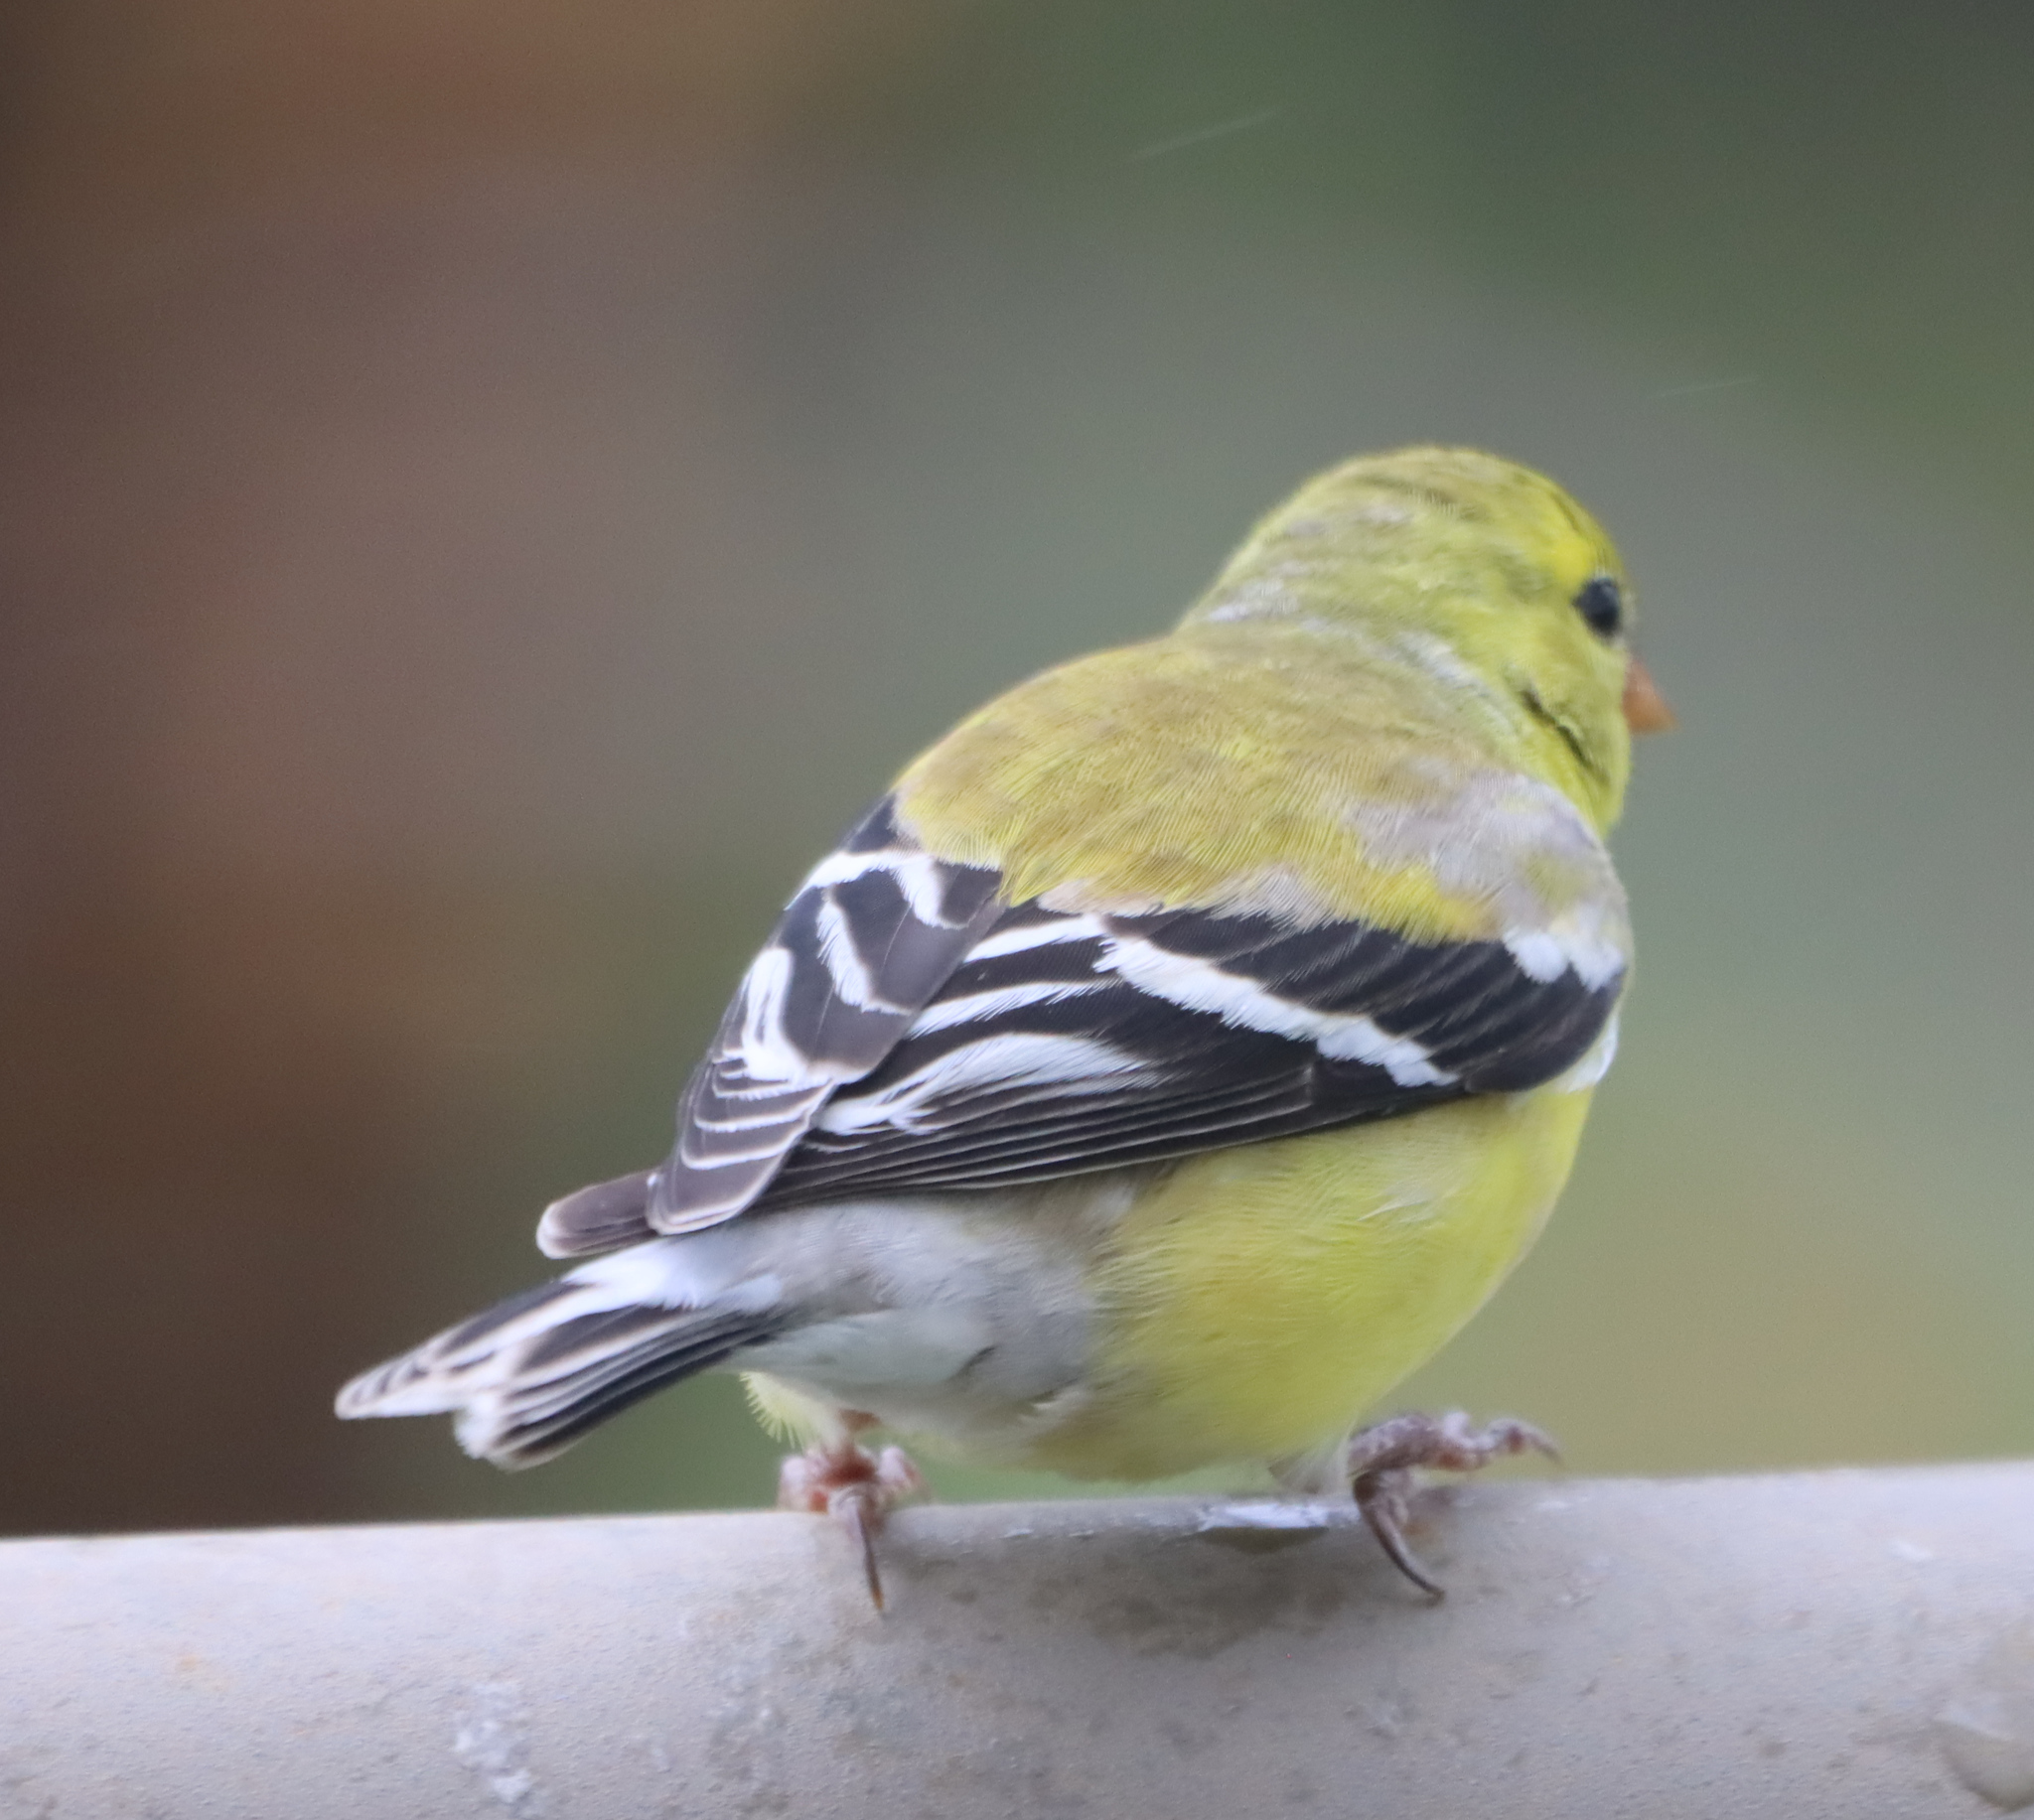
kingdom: Animalia
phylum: Chordata
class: Aves
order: Passeriformes
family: Fringillidae
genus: Spinus
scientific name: Spinus tristis
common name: American goldfinch
